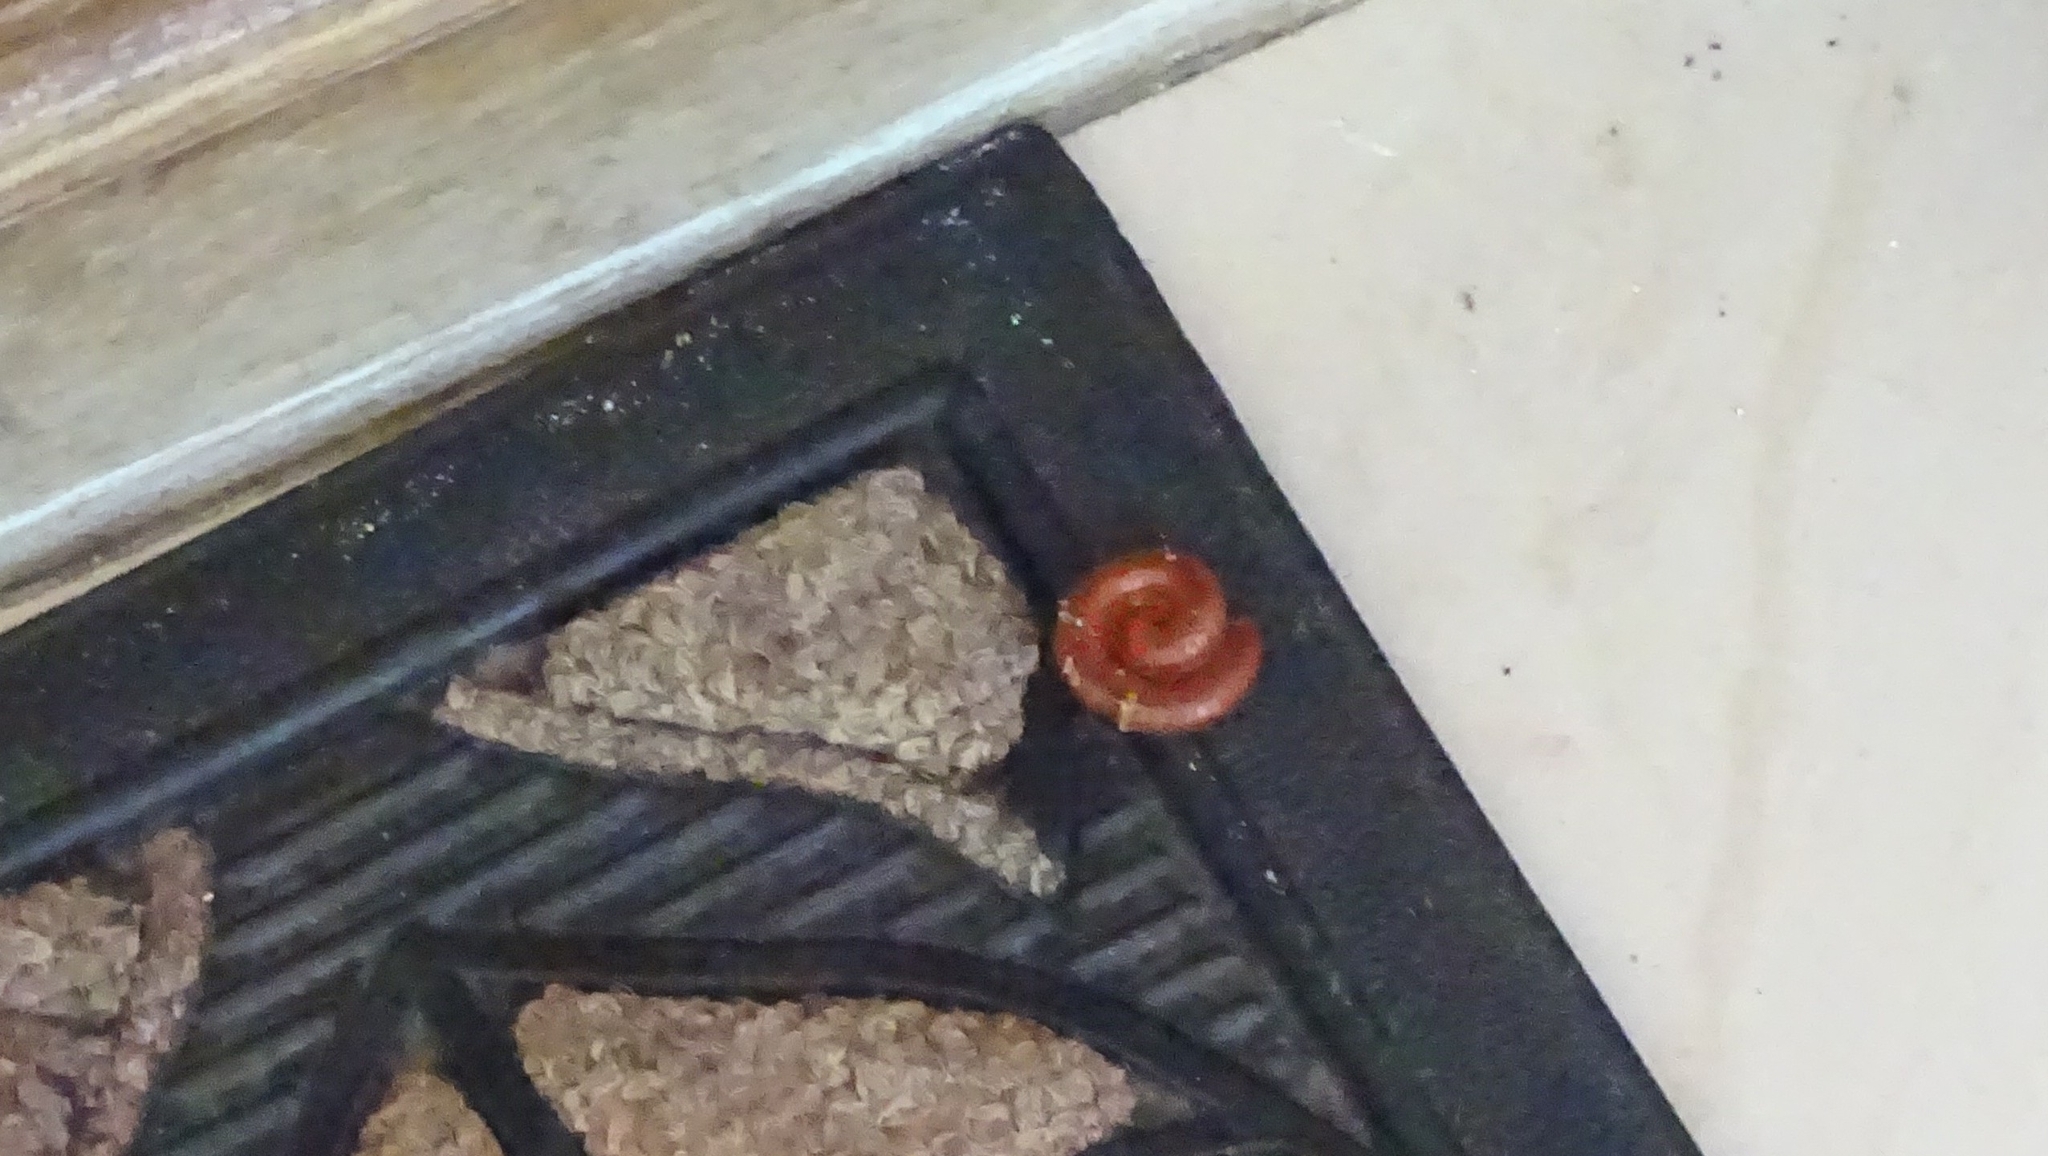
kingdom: Animalia
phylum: Arthropoda
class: Diplopoda
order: Spirobolida
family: Pachybolidae
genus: Trigoniulus
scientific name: Trigoniulus corallinus
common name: Millipede
